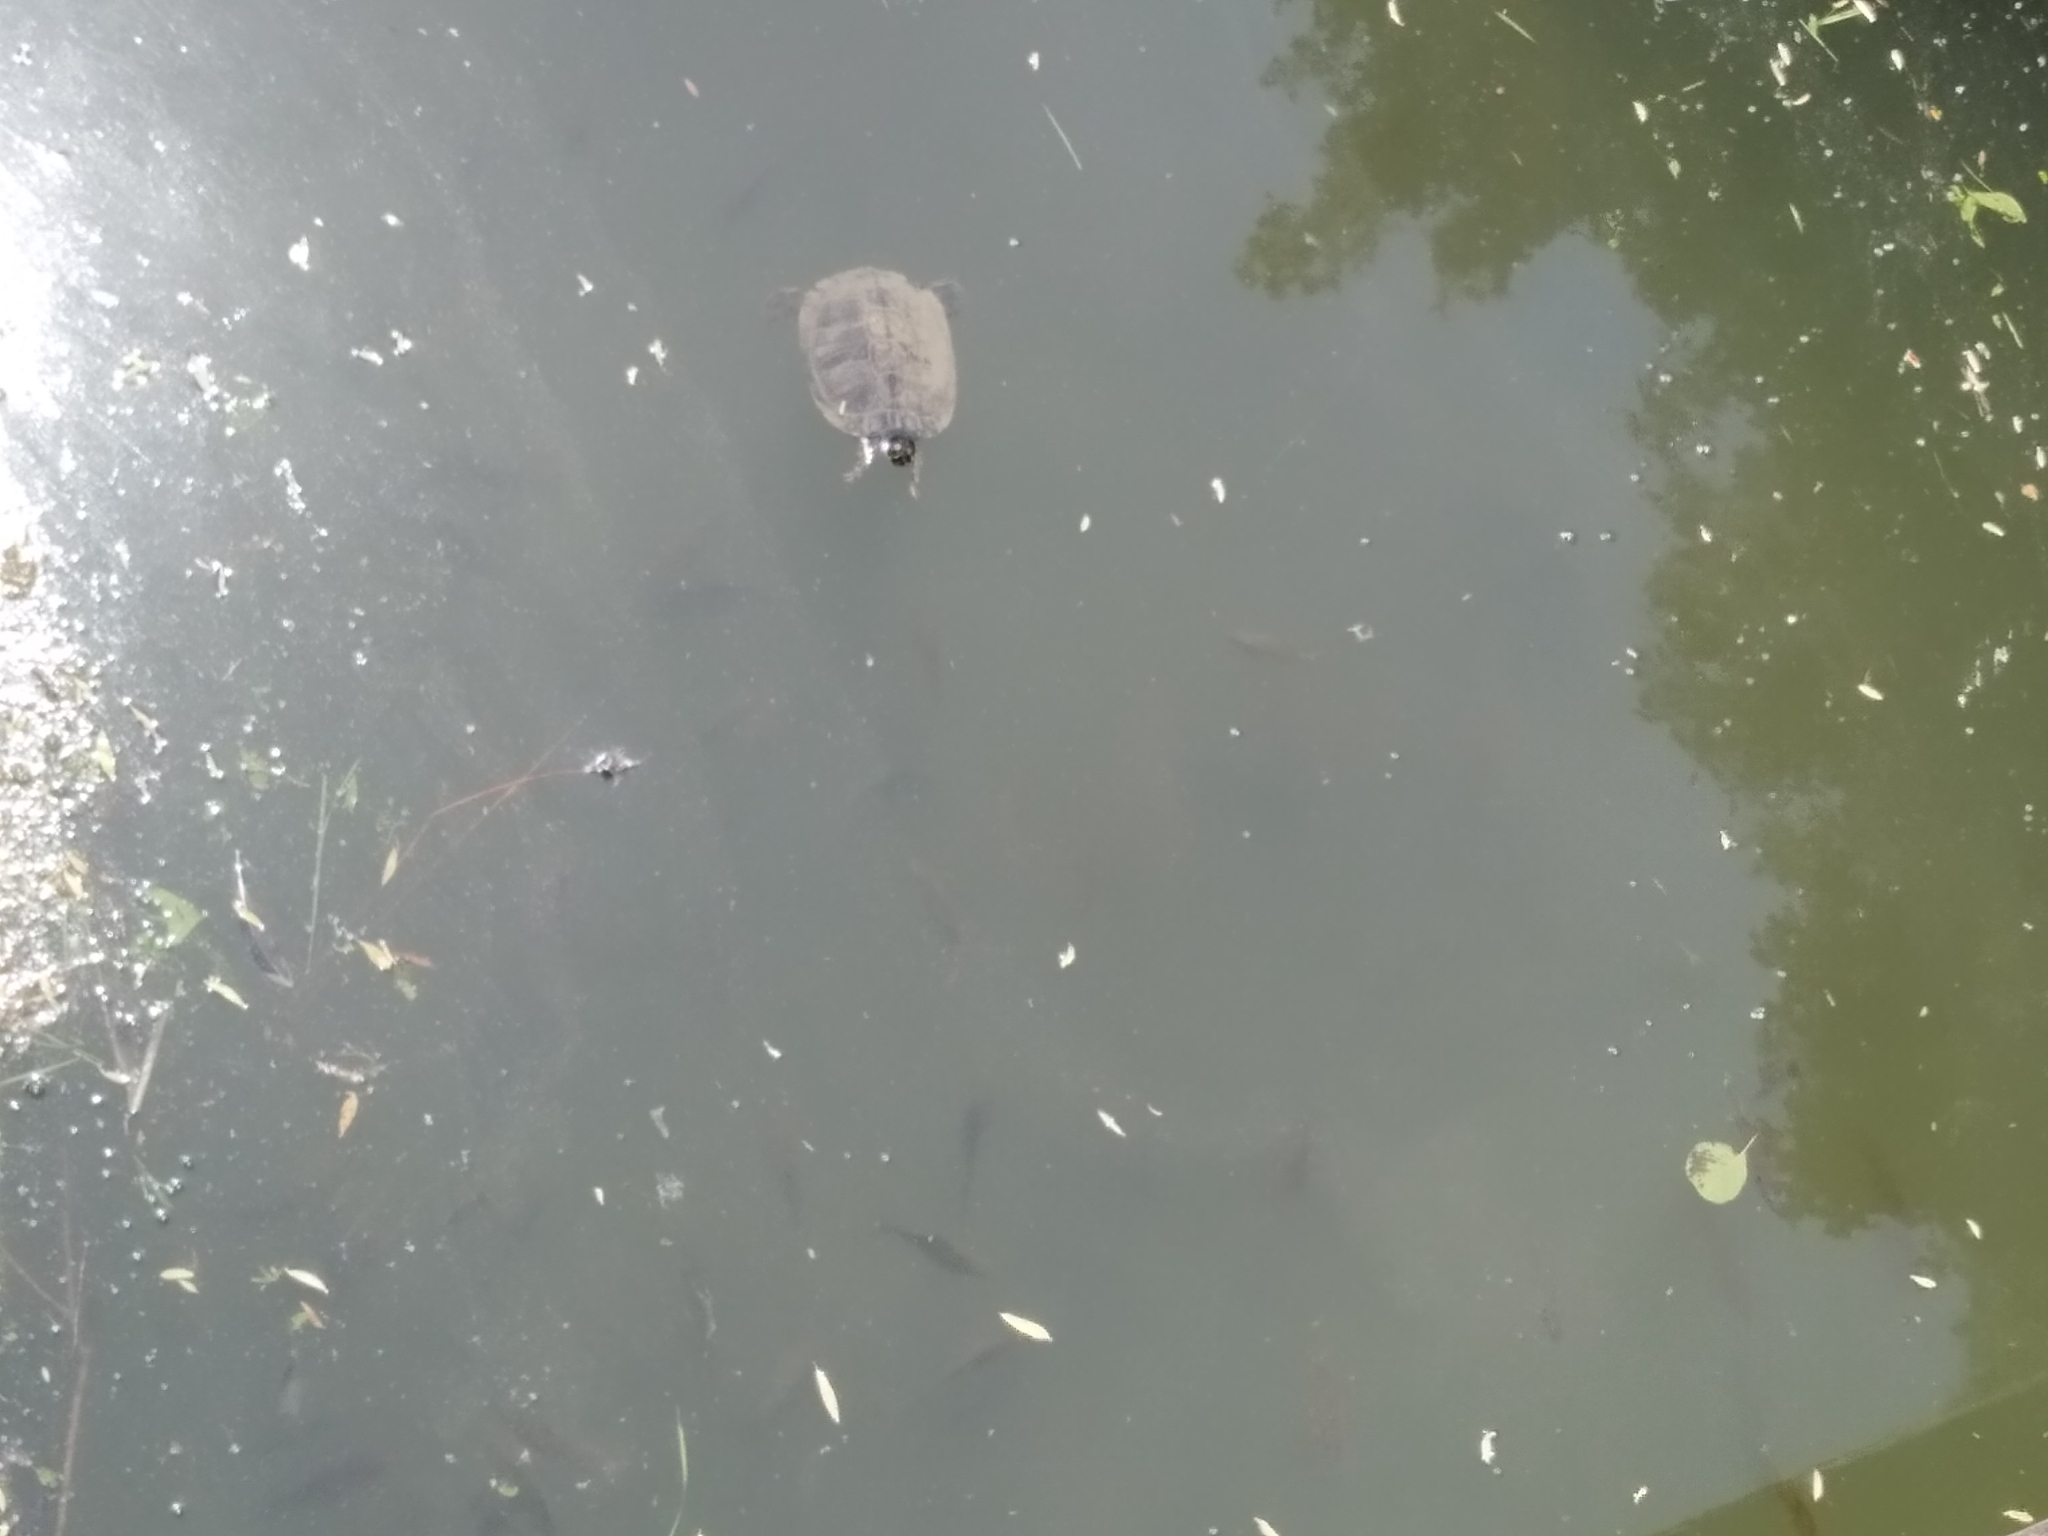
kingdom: Animalia
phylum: Chordata
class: Testudines
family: Emydidae
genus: Trachemys
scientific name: Trachemys scripta
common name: Slider
